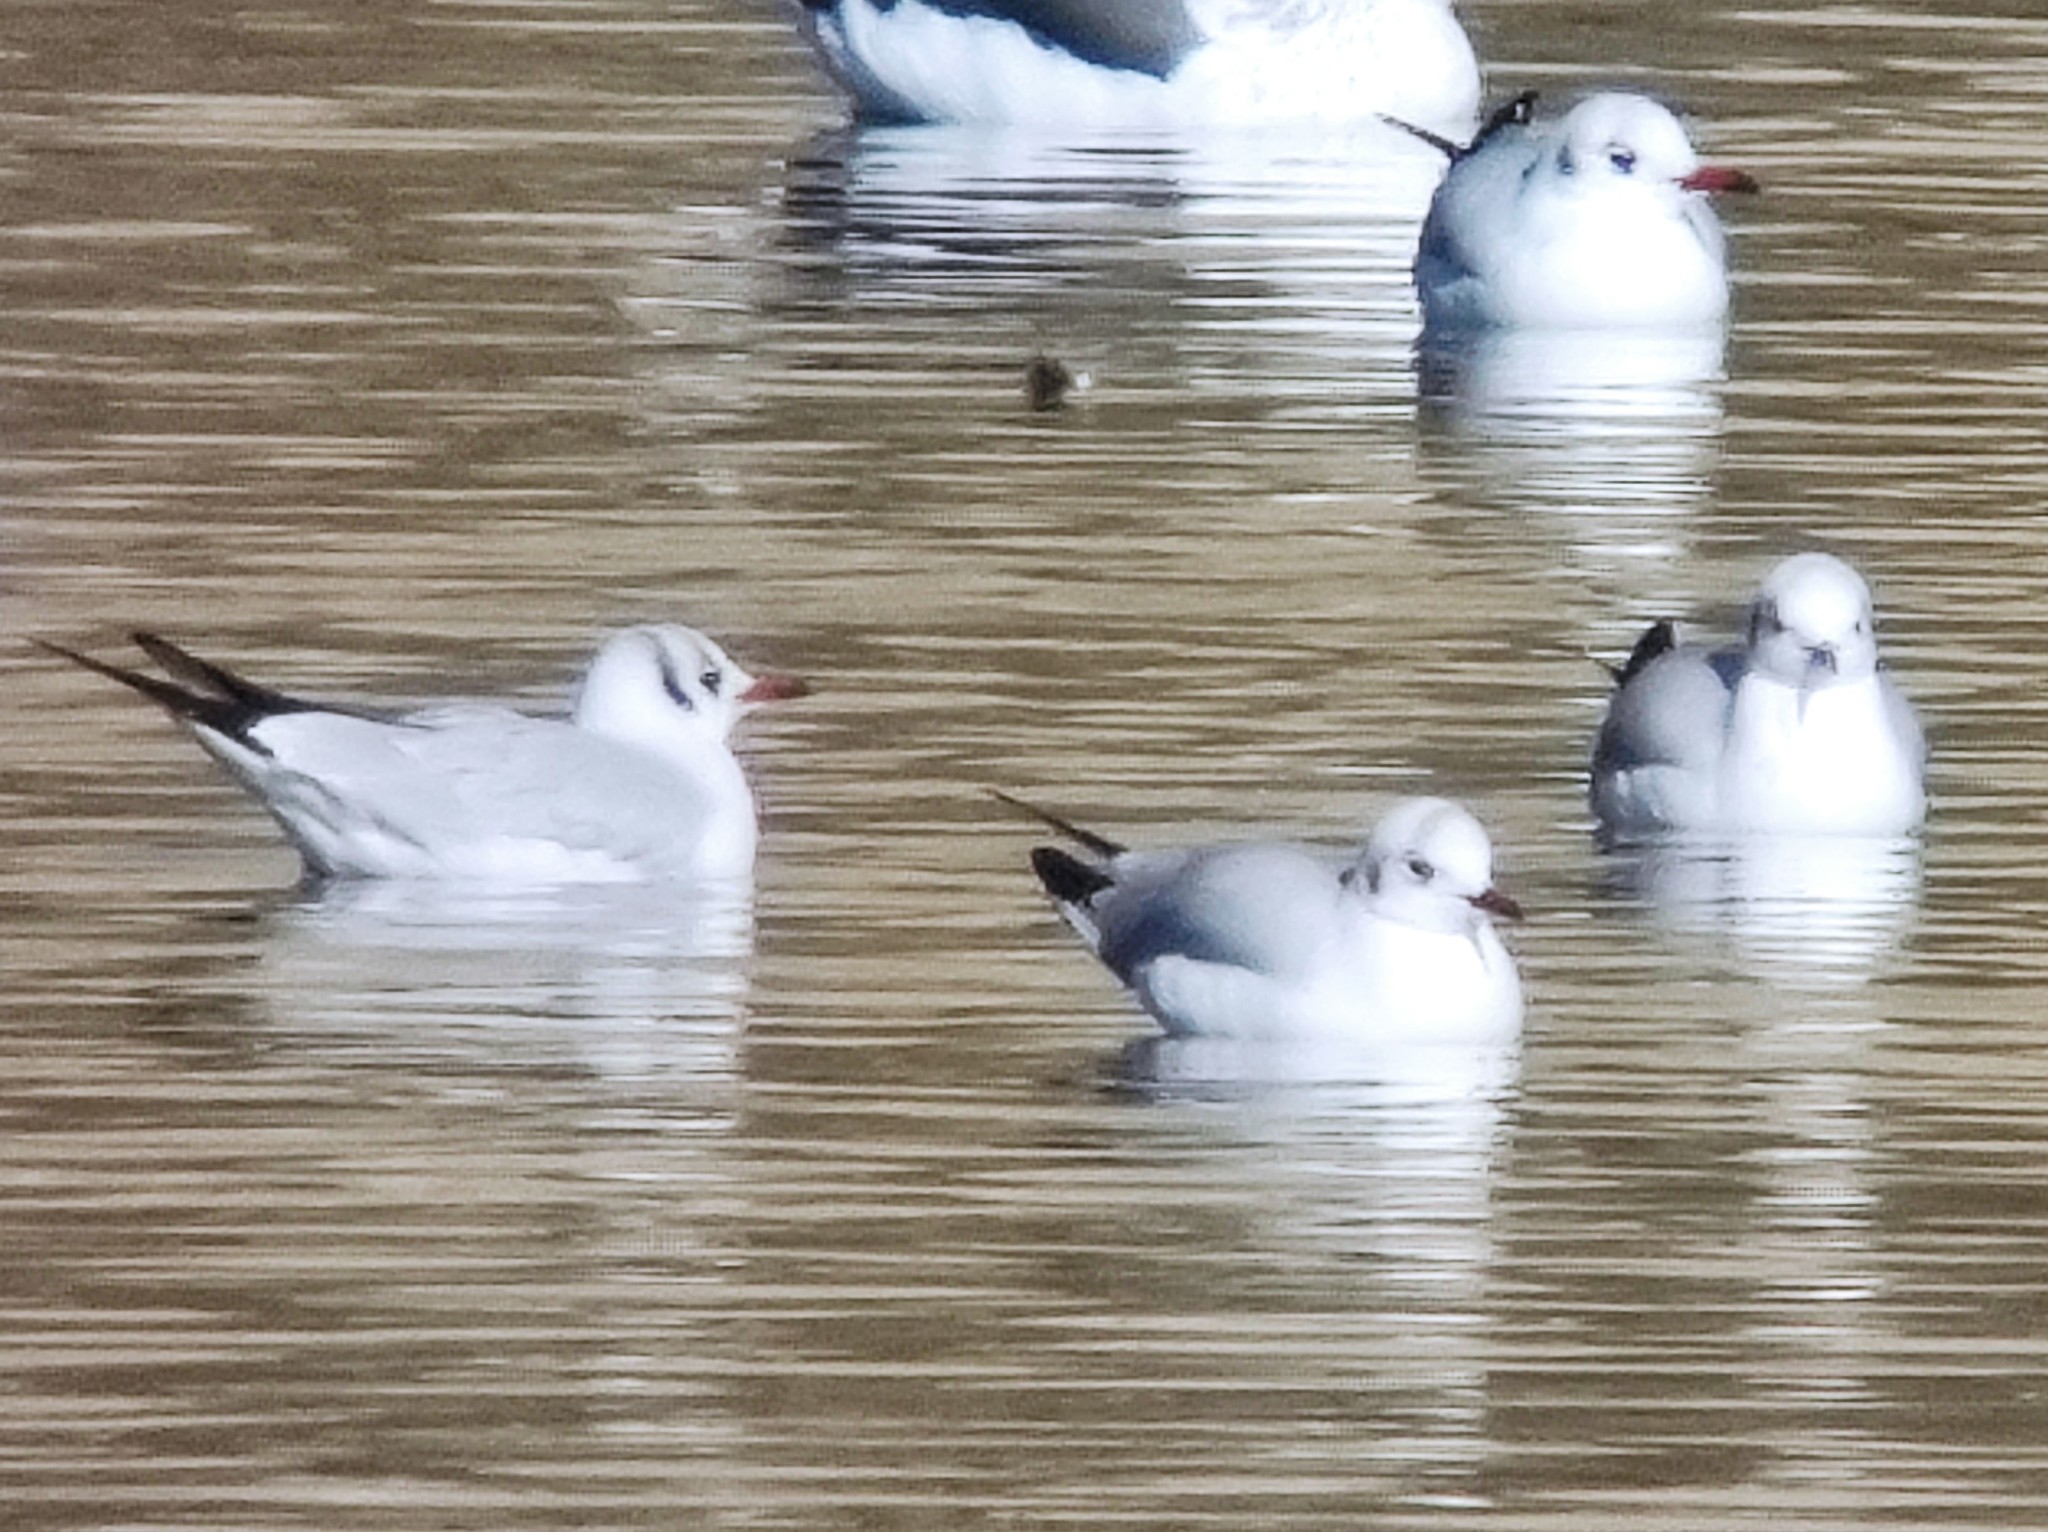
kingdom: Animalia
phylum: Chordata
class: Aves
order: Charadriiformes
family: Laridae
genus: Chroicocephalus
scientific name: Chroicocephalus ridibundus
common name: Black-headed gull
